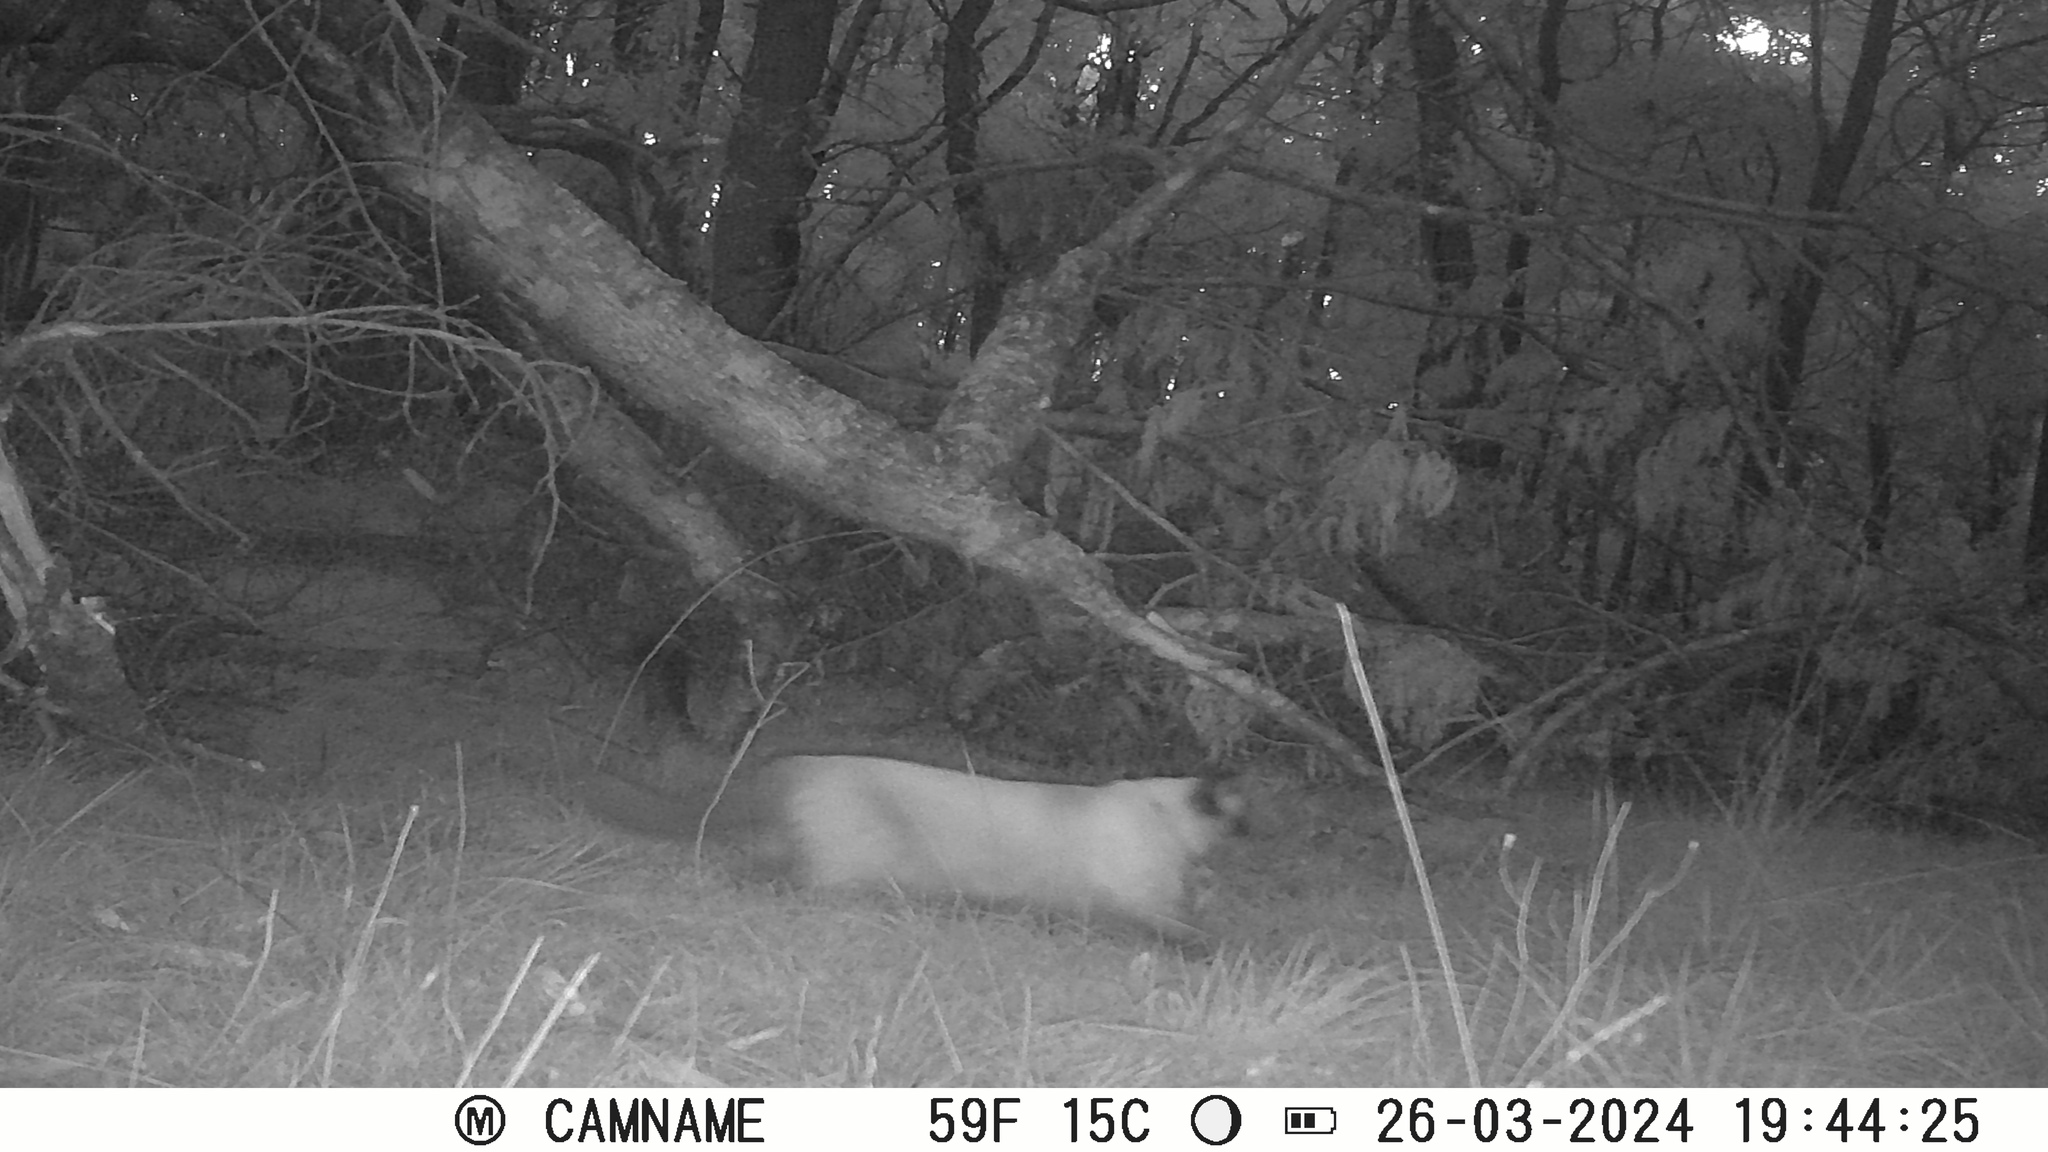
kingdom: Animalia
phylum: Chordata
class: Mammalia
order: Carnivora
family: Felidae
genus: Felis
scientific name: Felis catus
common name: Domestic cat
